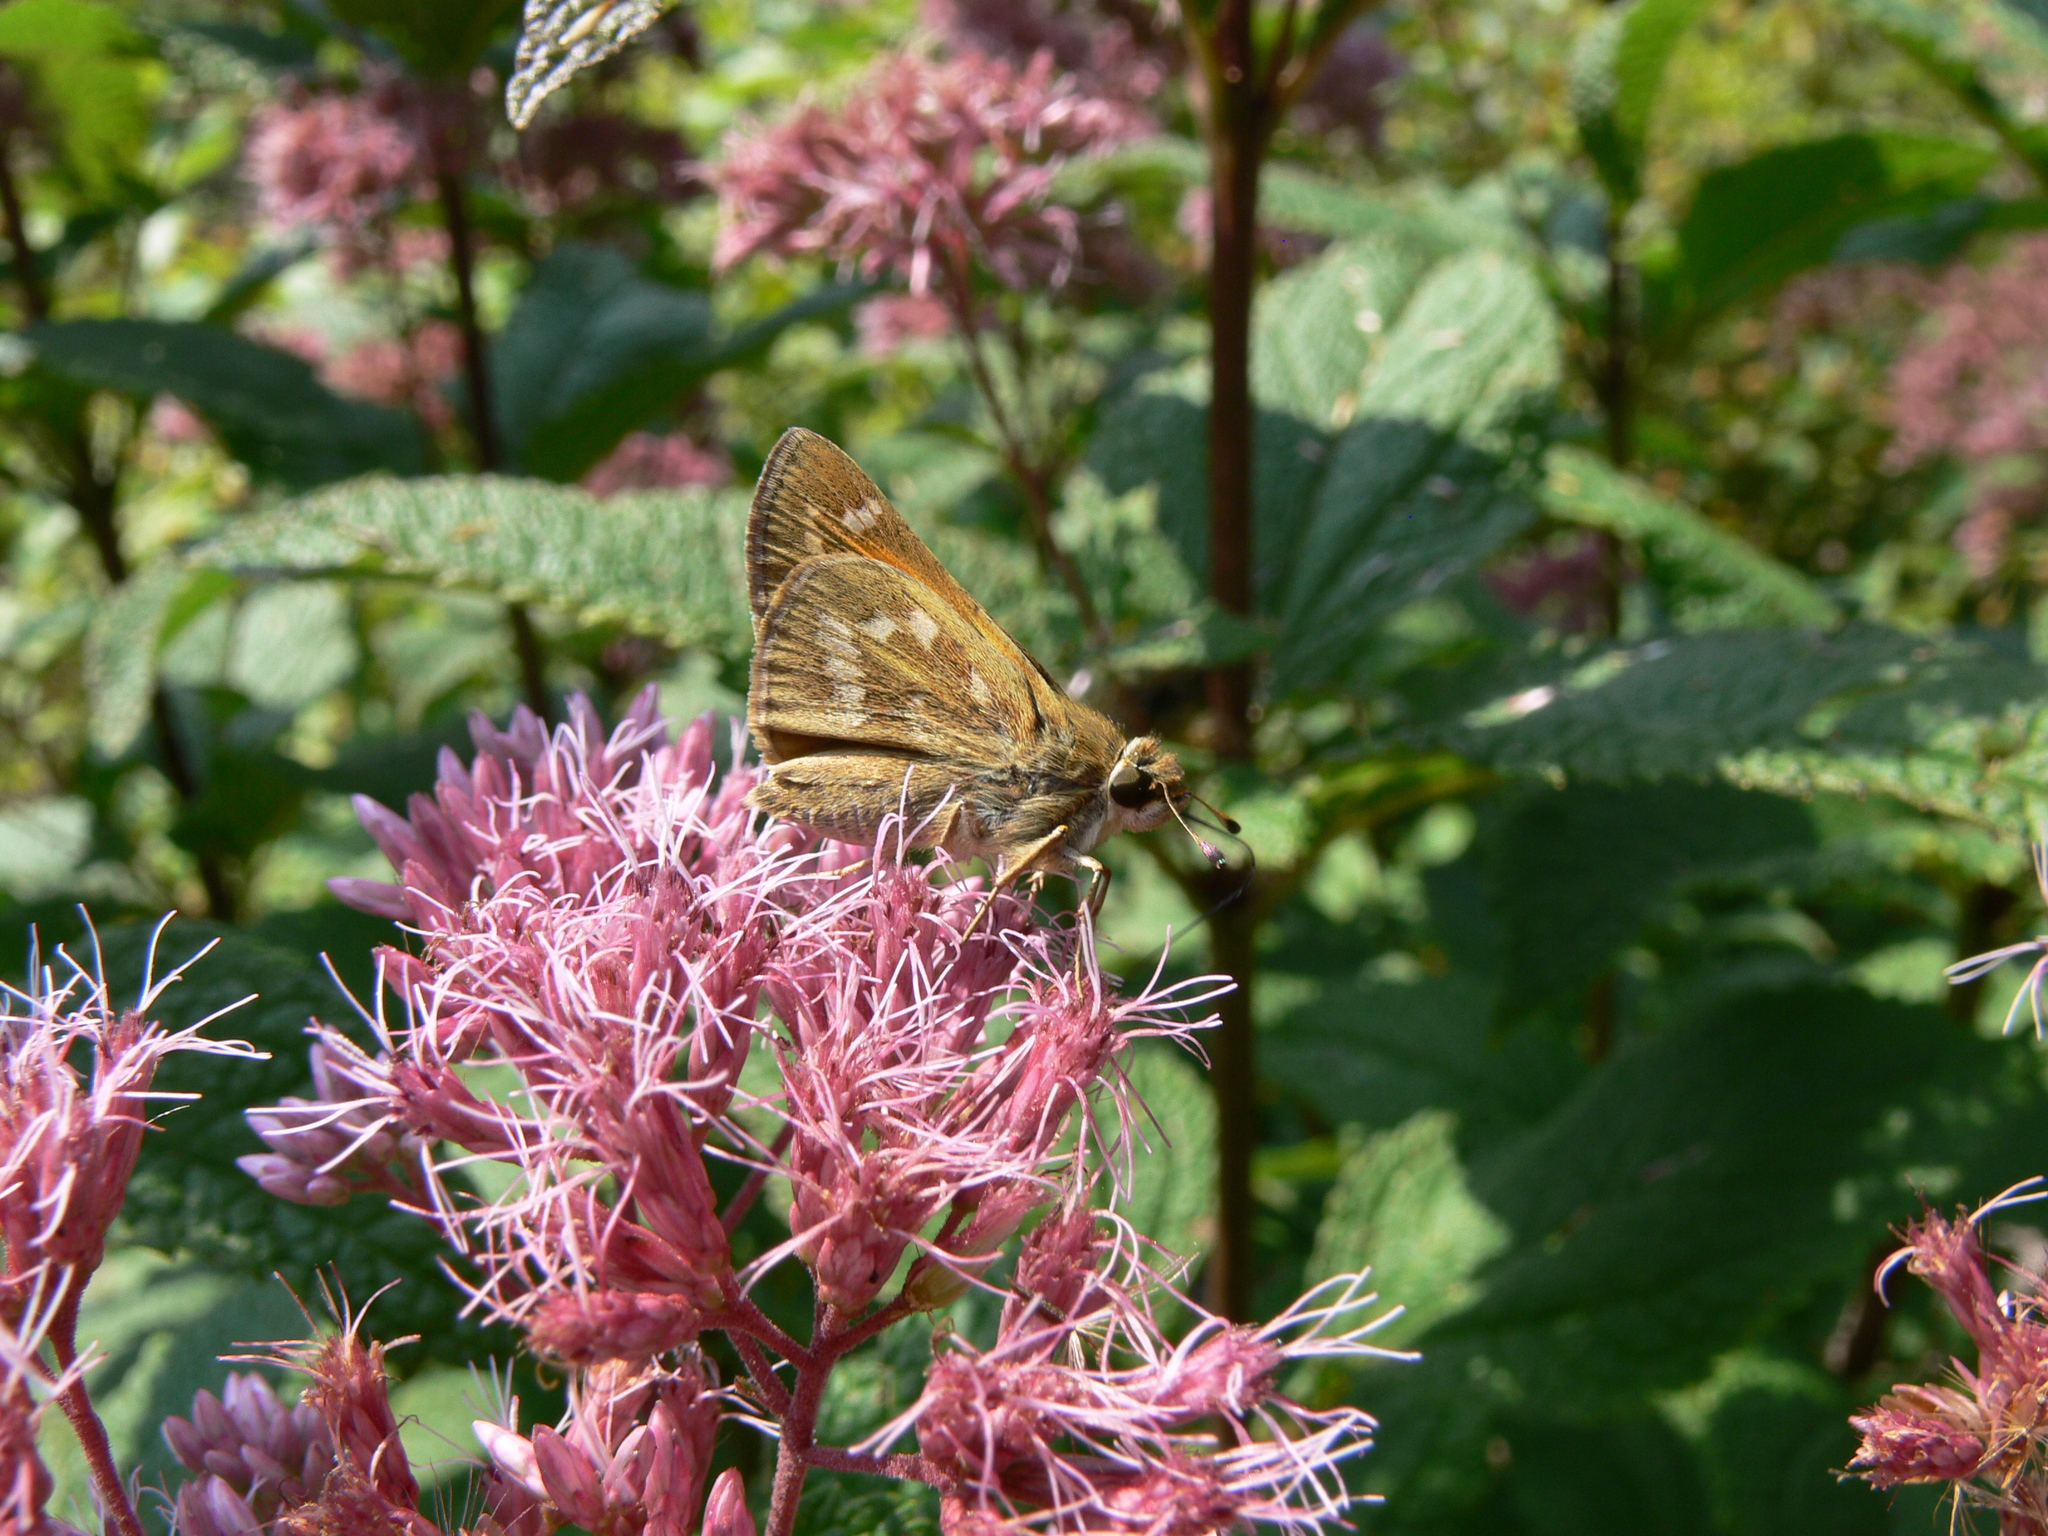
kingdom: Animalia
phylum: Arthropoda
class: Insecta
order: Lepidoptera
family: Hesperiidae
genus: Atalopedes
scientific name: Atalopedes
